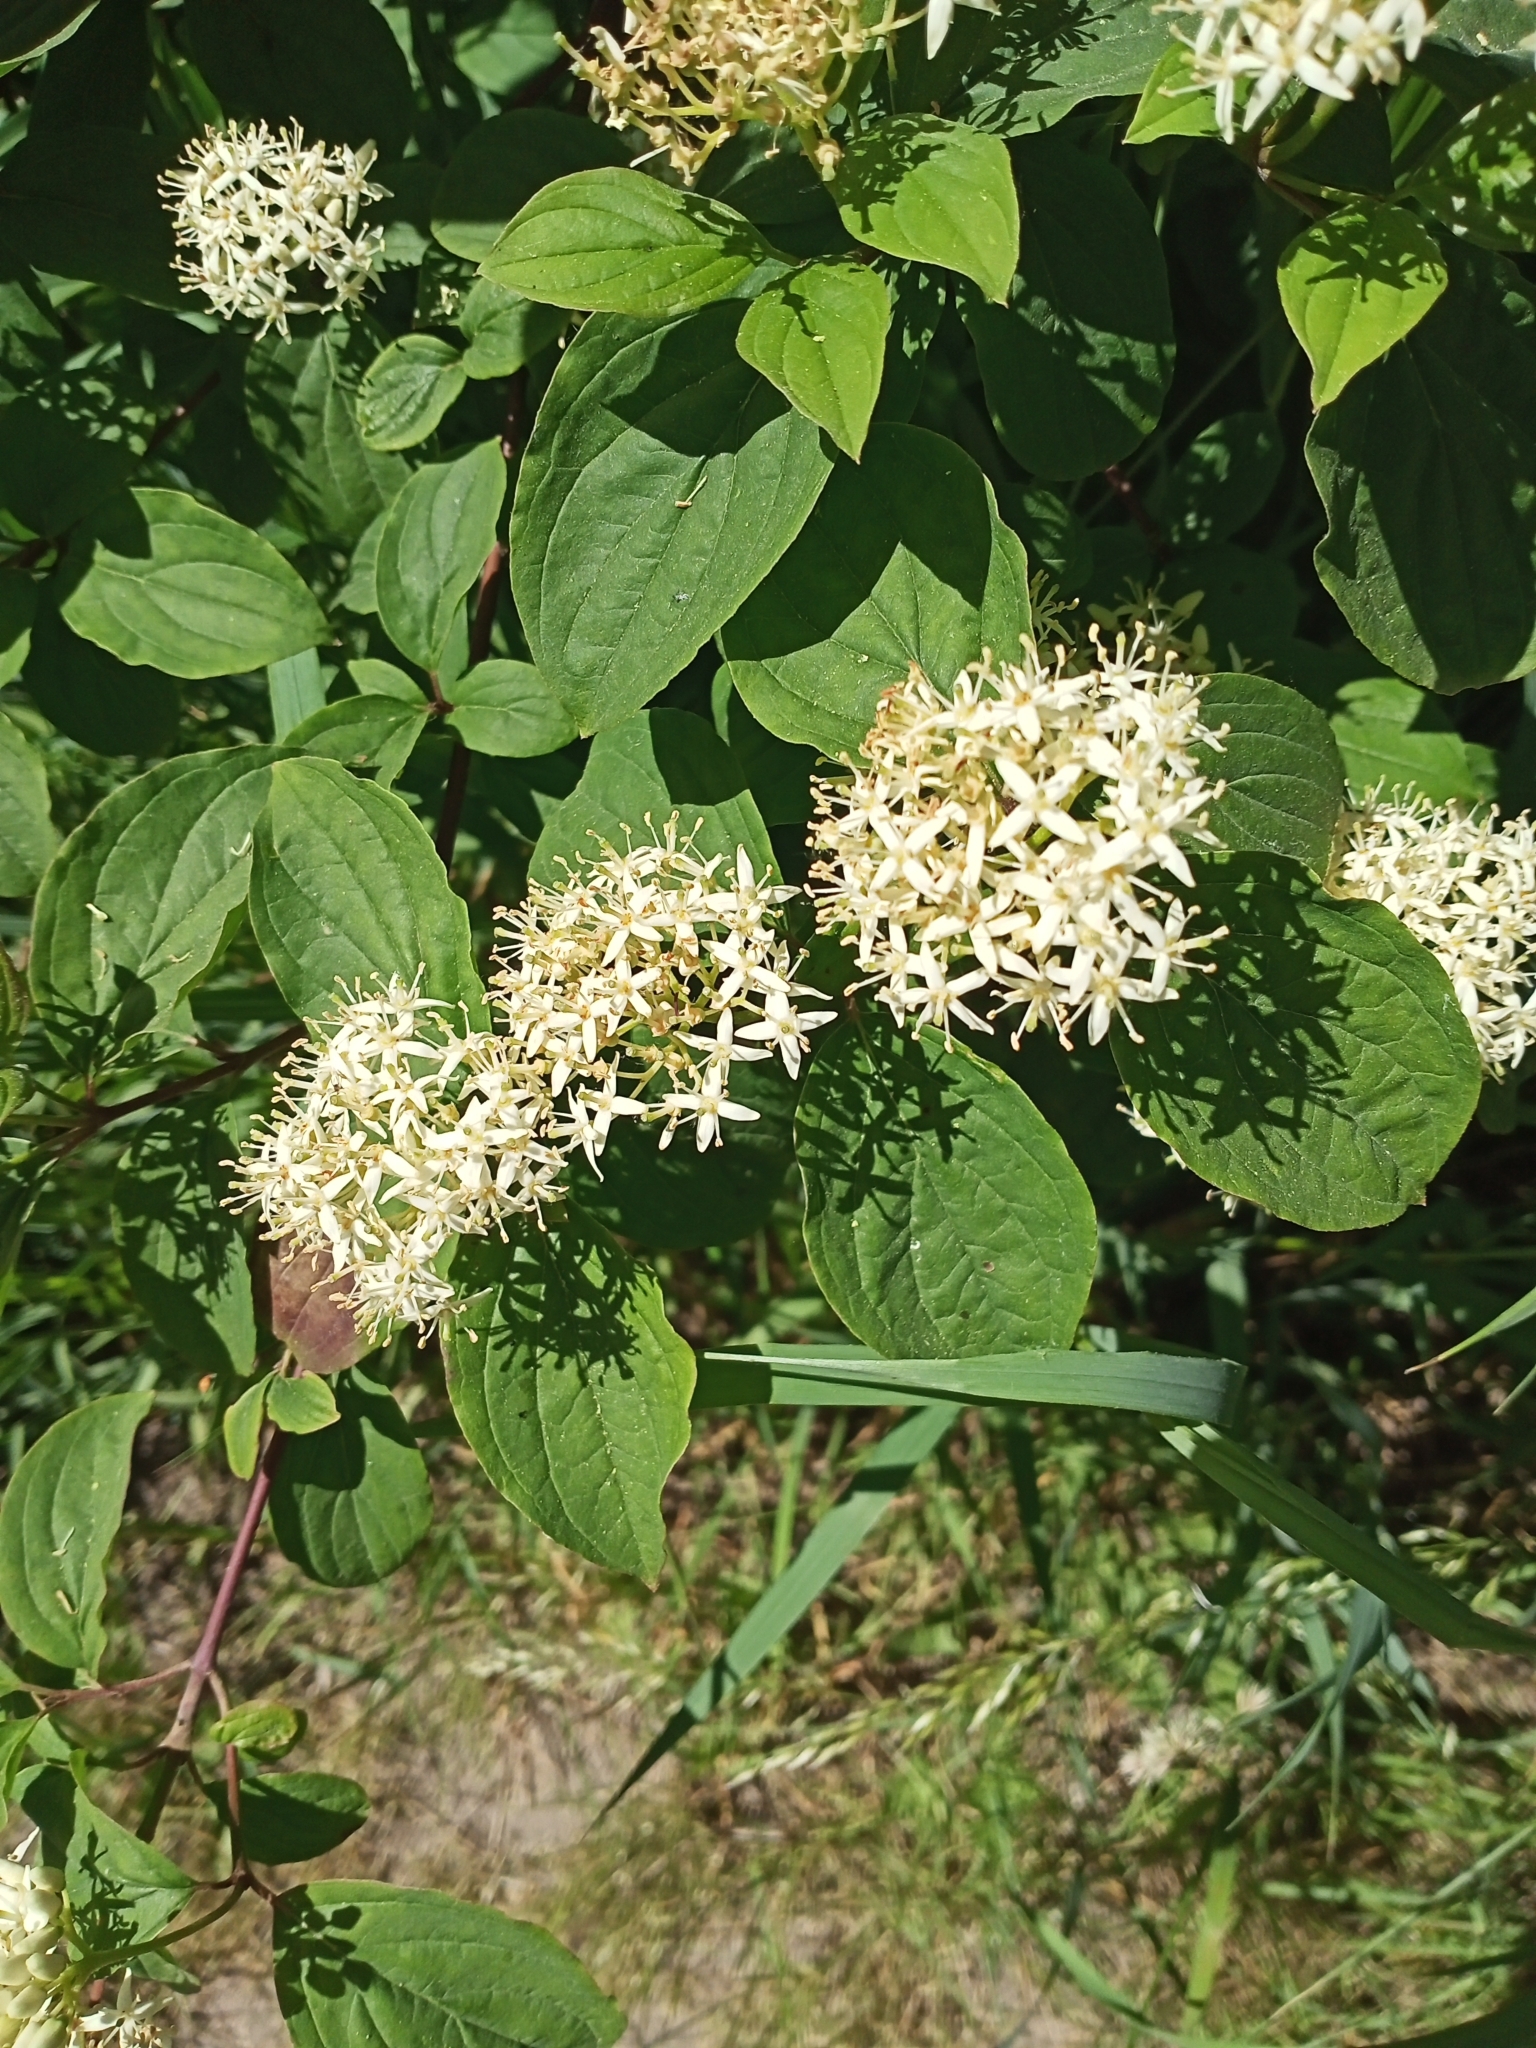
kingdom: Plantae
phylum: Tracheophyta
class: Magnoliopsida
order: Cornales
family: Cornaceae
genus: Cornus
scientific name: Cornus sanguinea
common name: Dogwood
